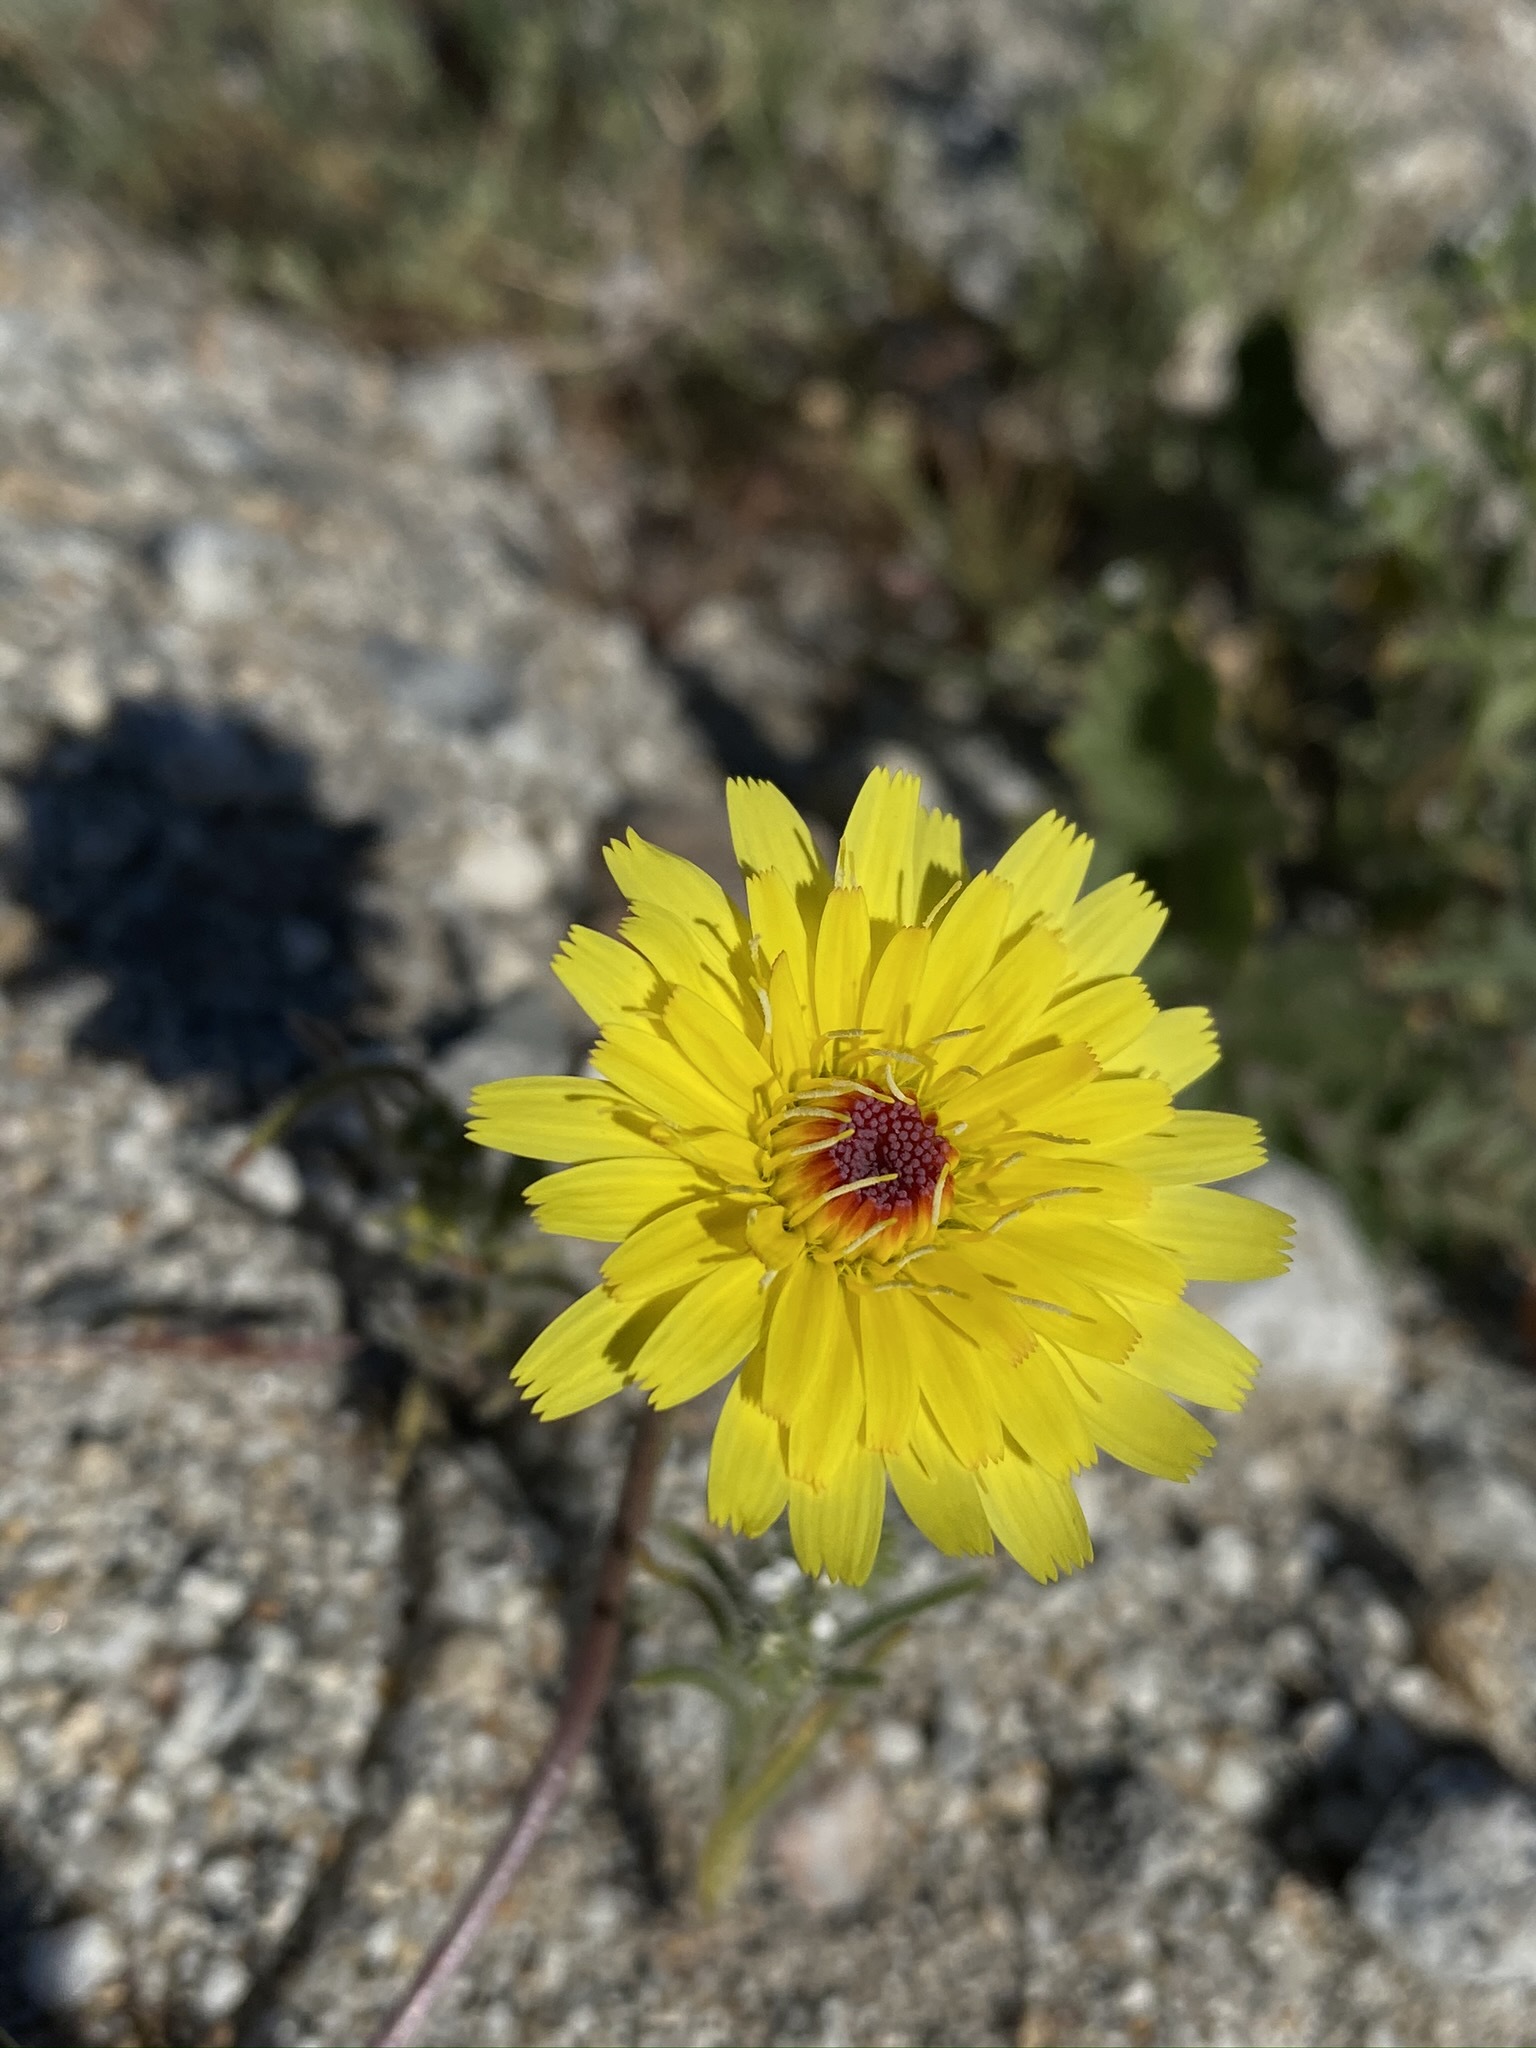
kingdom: Plantae
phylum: Tracheophyta
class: Magnoliopsida
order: Asterales
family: Asteraceae
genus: Malacothrix
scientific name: Malacothrix glabrata
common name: Smooth desert-dandelion
